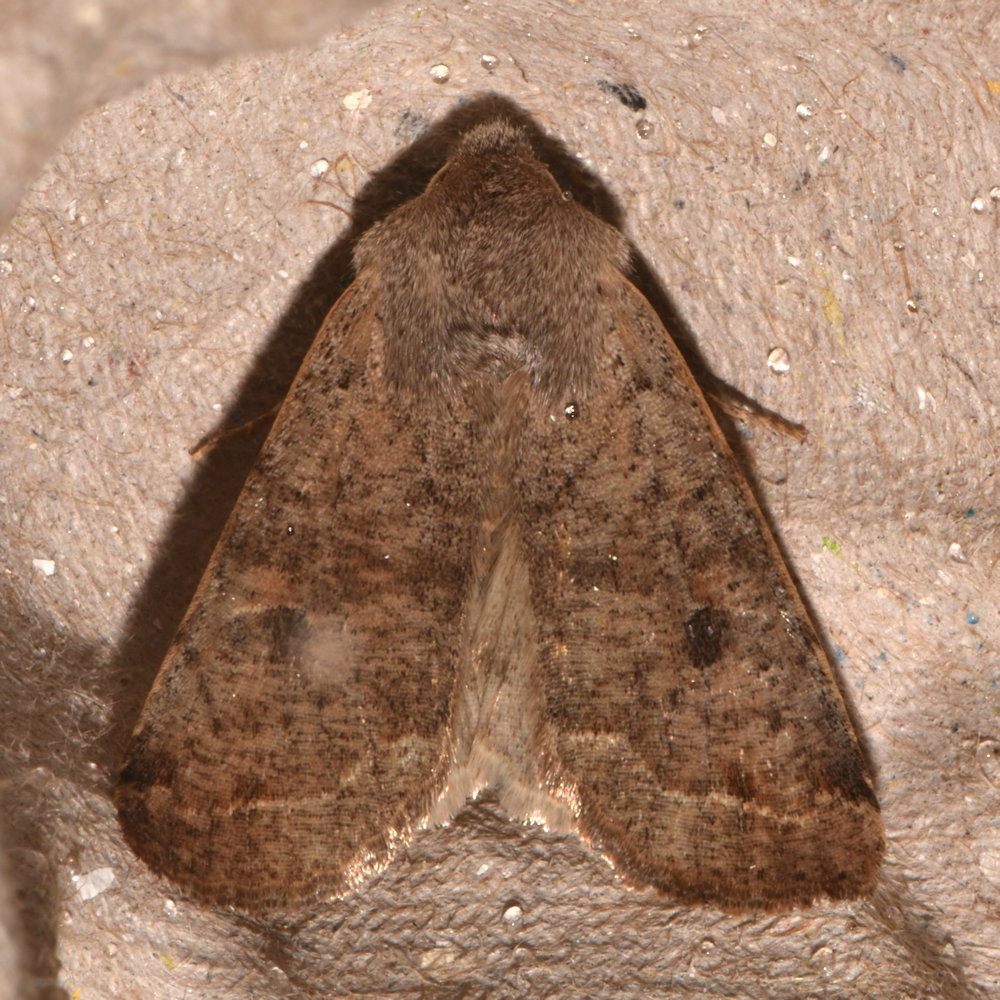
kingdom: Animalia
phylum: Arthropoda
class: Insecta
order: Lepidoptera
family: Noctuidae
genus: Orthosia
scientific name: Orthosia hibisci
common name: Green fruitworm
